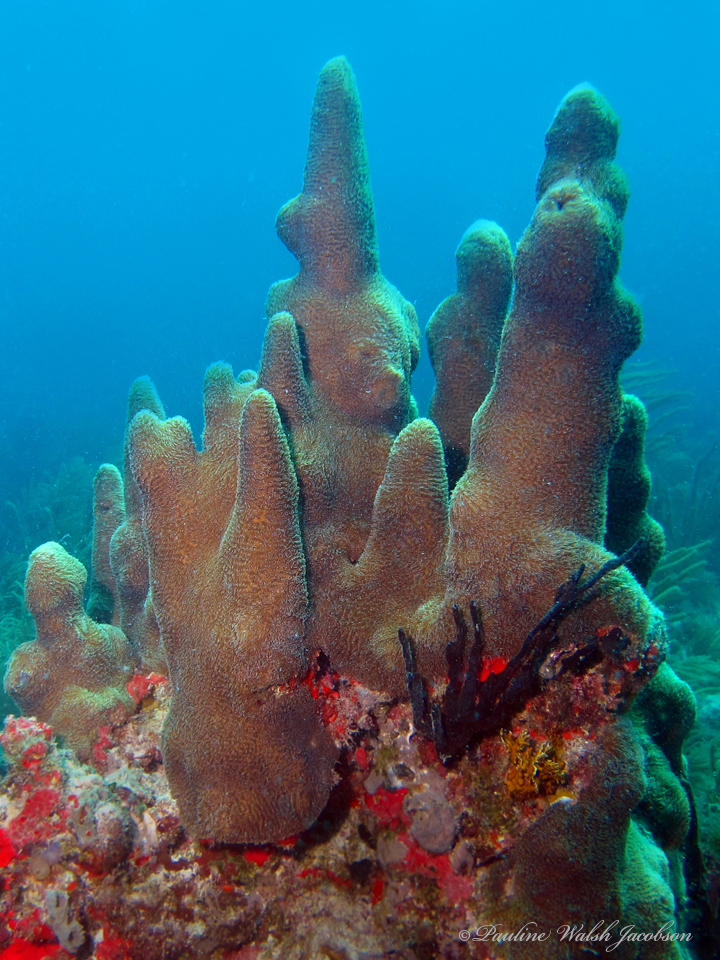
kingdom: Animalia
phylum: Cnidaria
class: Anthozoa
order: Scleractinia
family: Meandrinidae
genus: Dendrogyra
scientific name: Dendrogyra cylindrus
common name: Pillar coral
